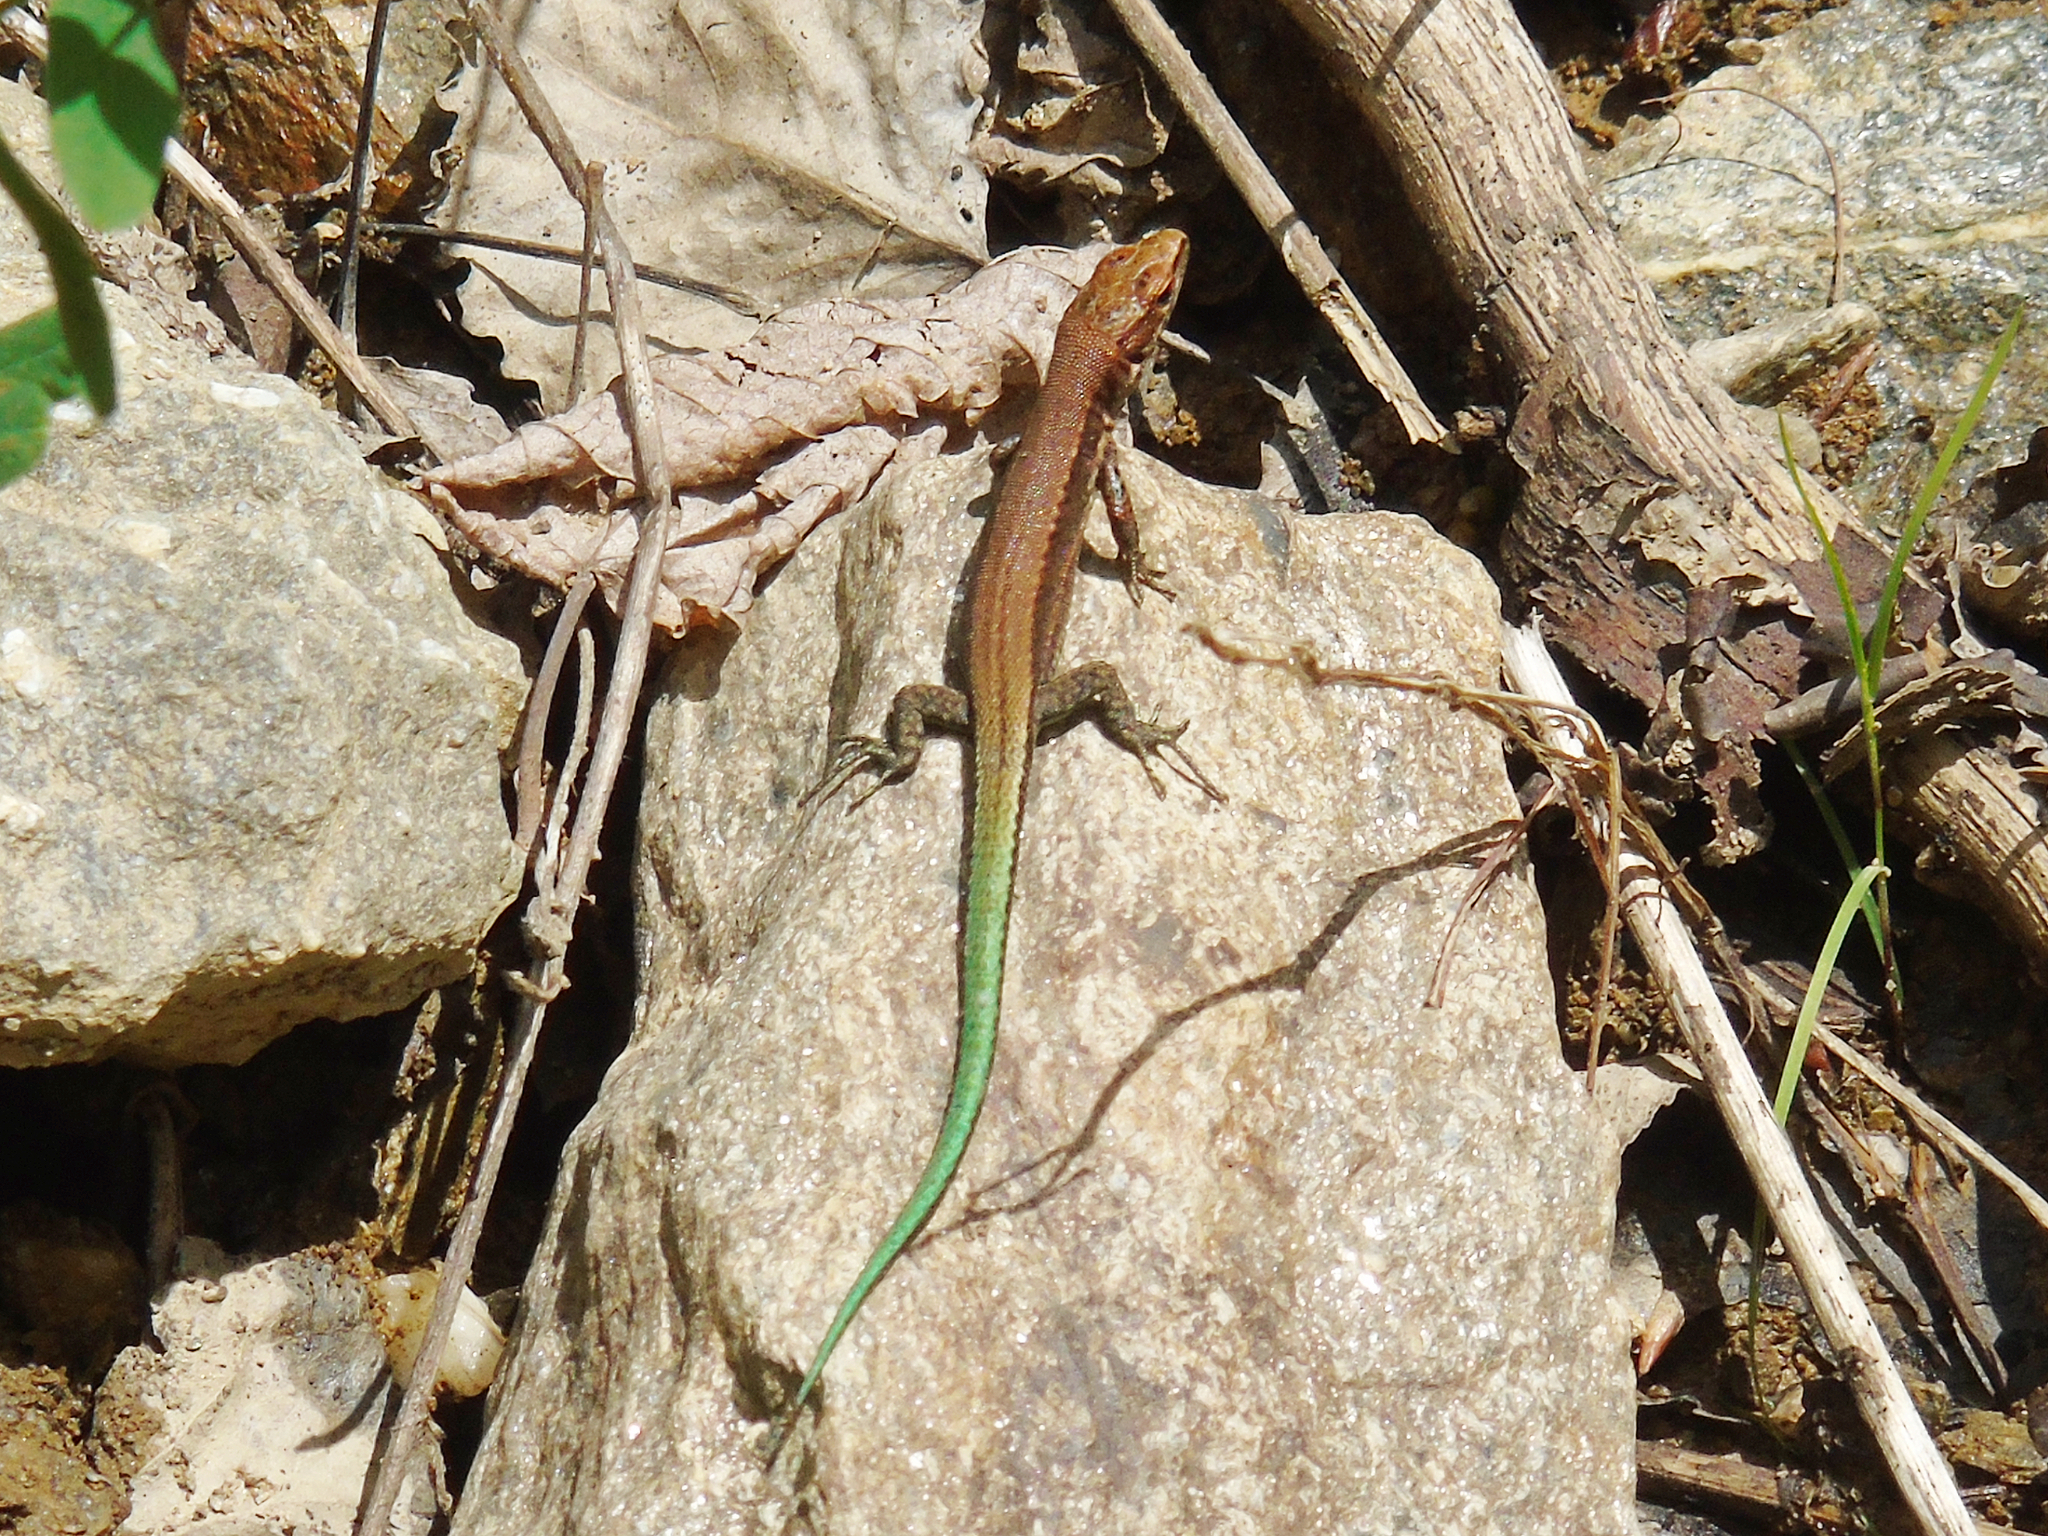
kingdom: Animalia
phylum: Chordata
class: Squamata
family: Lacertidae
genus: Darevskia
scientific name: Darevskia derjugini
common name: Derjugin's lizard
